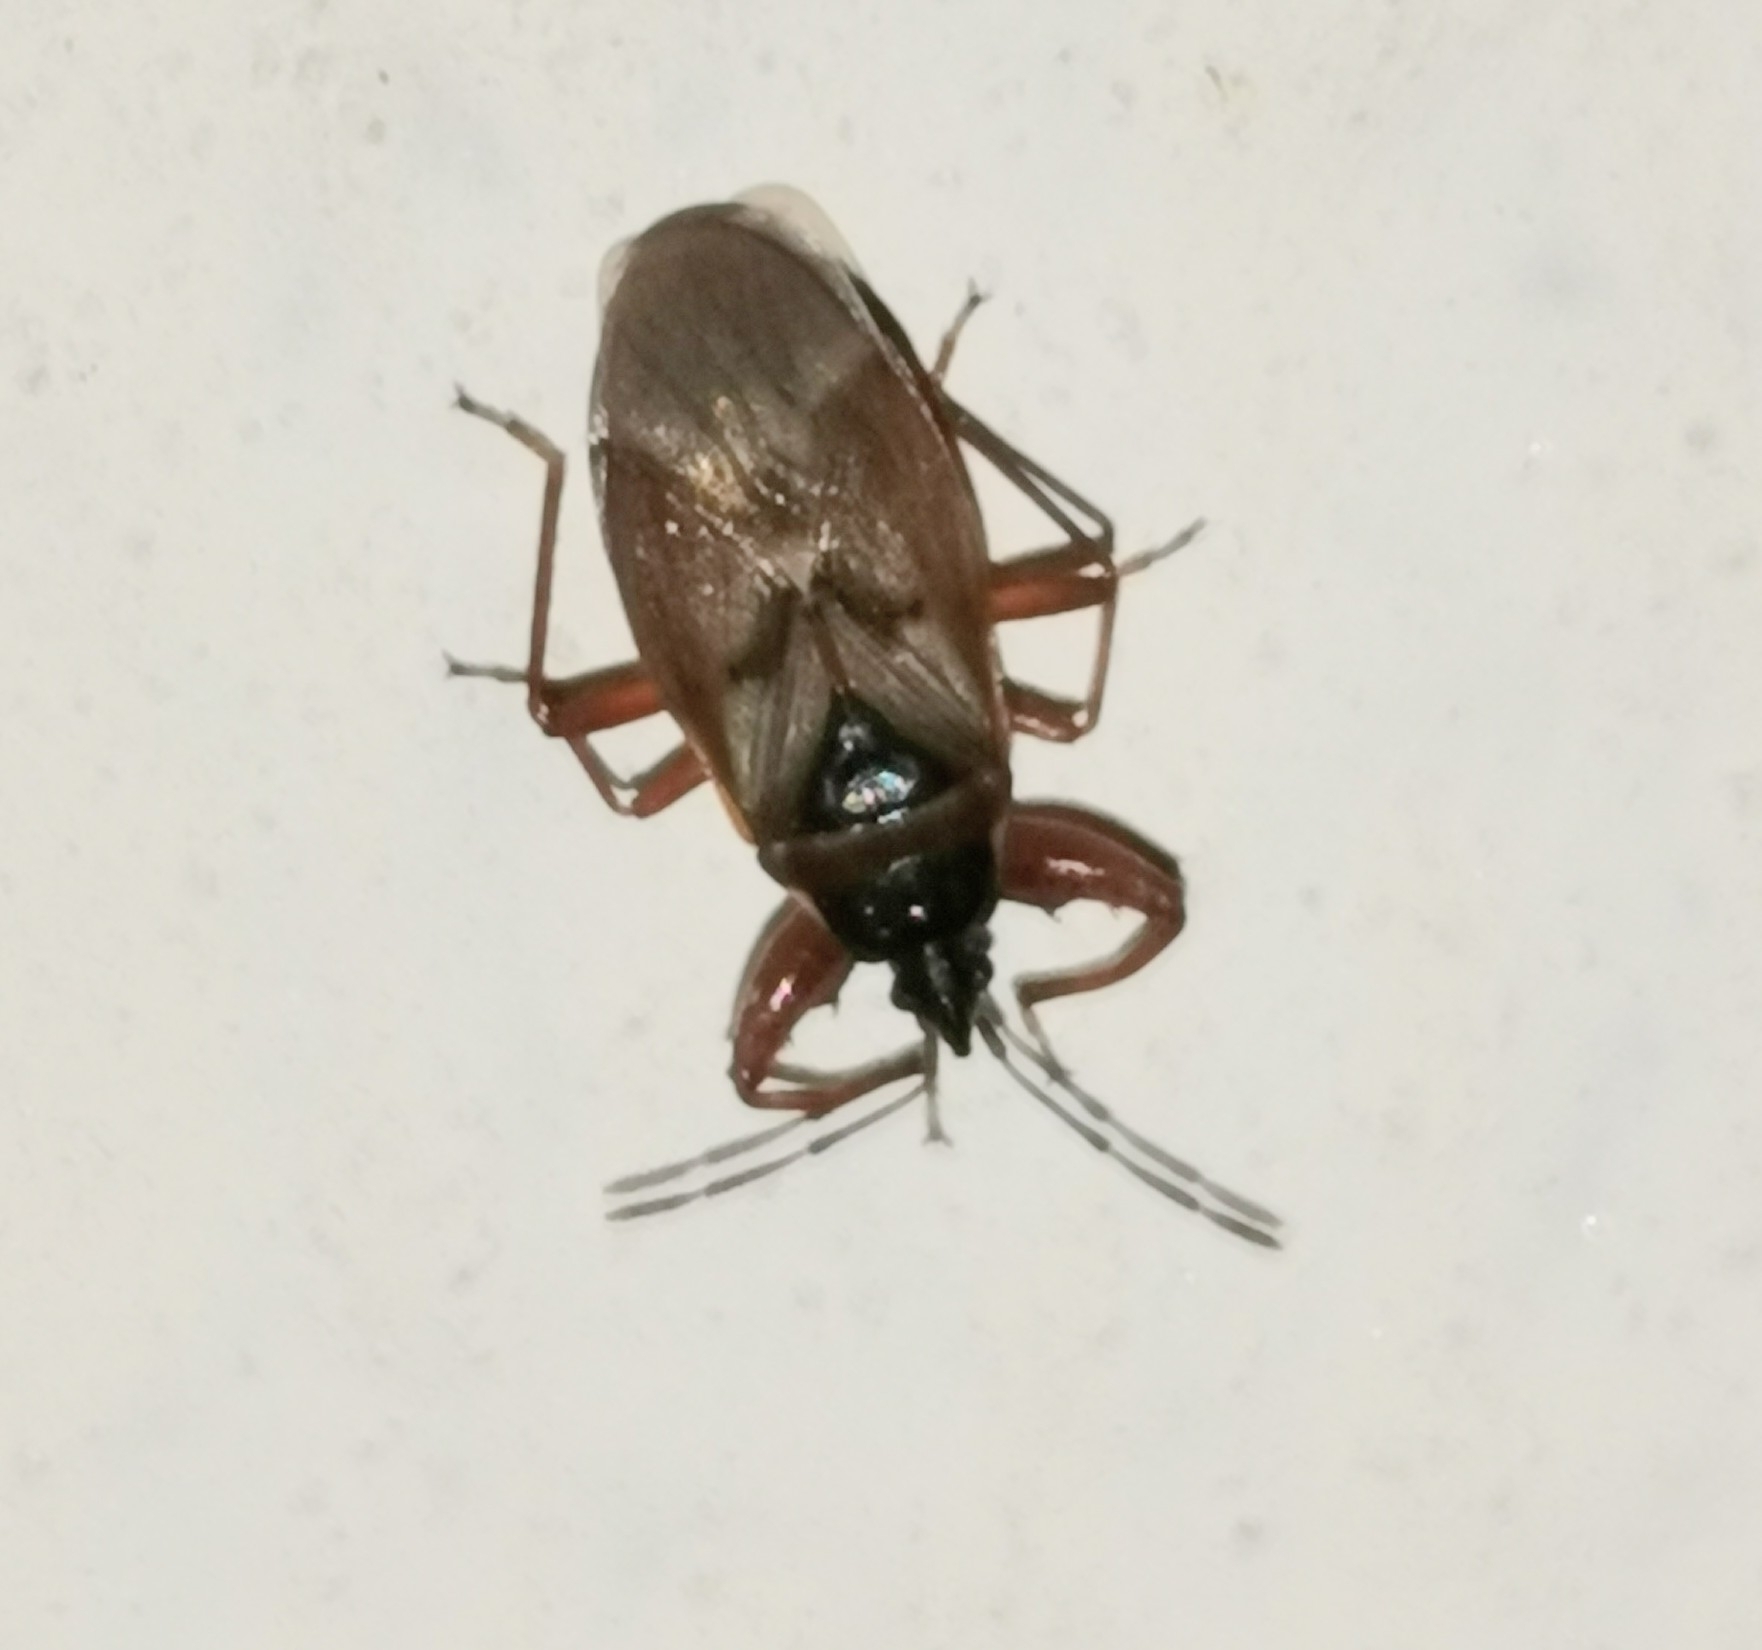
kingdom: Animalia
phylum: Arthropoda
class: Insecta
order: Hemiptera
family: Rhyparochromidae
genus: Gastrodes
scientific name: Gastrodes abietum
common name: Spruce cone bug
